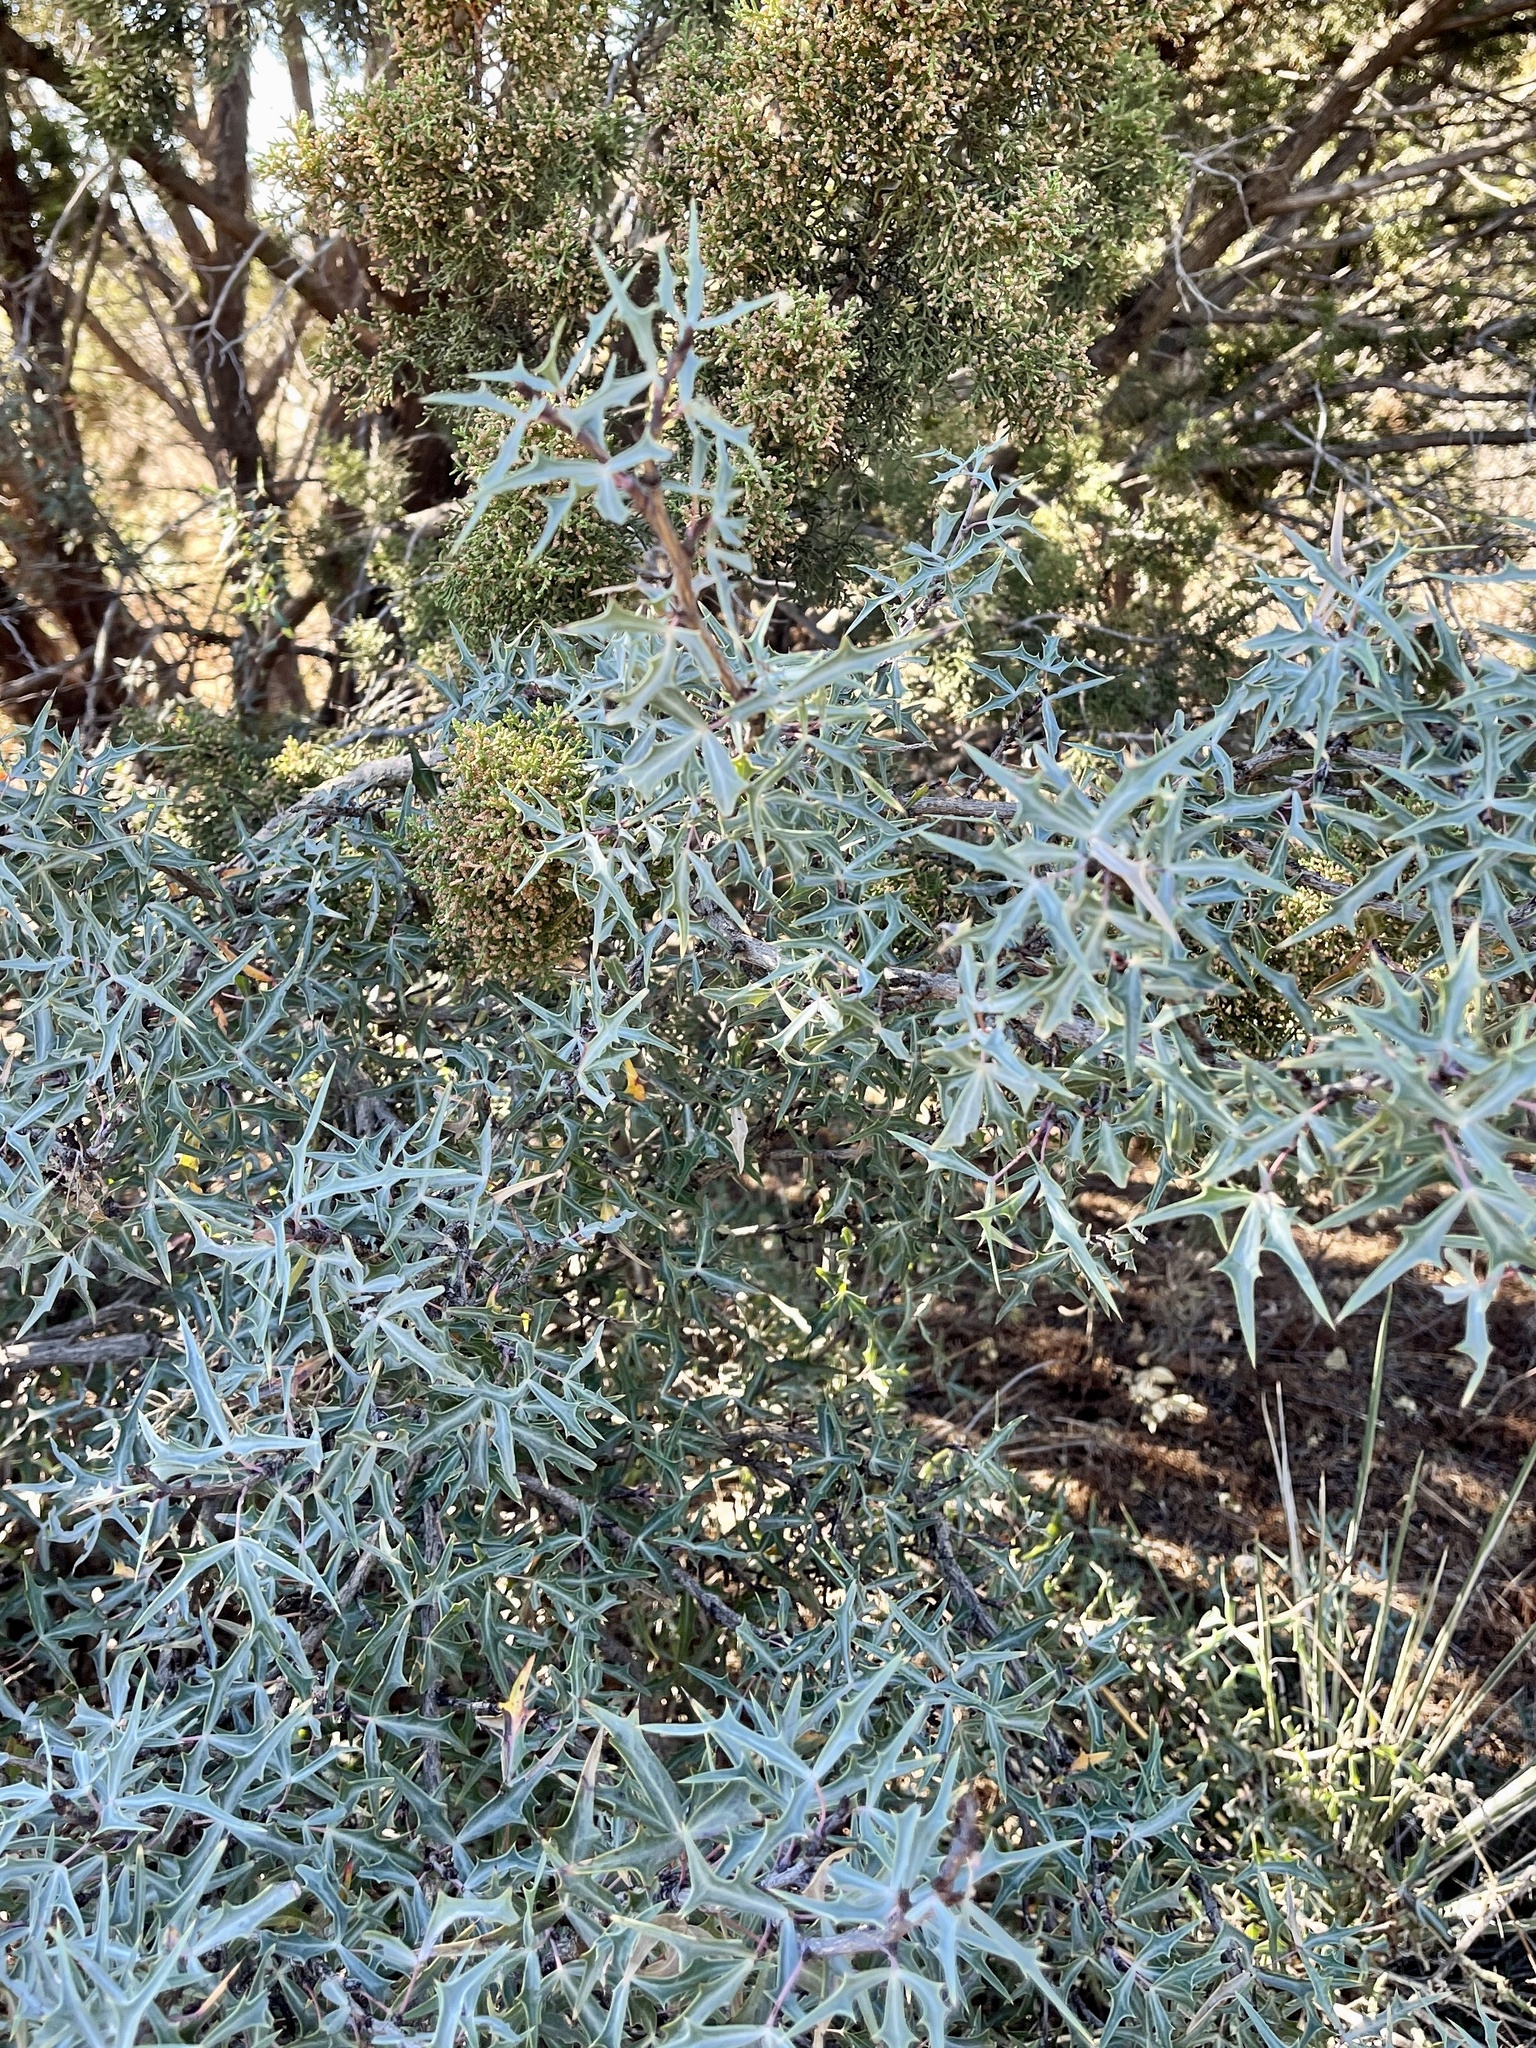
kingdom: Plantae
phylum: Tracheophyta
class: Magnoliopsida
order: Ranunculales
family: Berberidaceae
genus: Alloberberis
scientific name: Alloberberis trifoliolata
